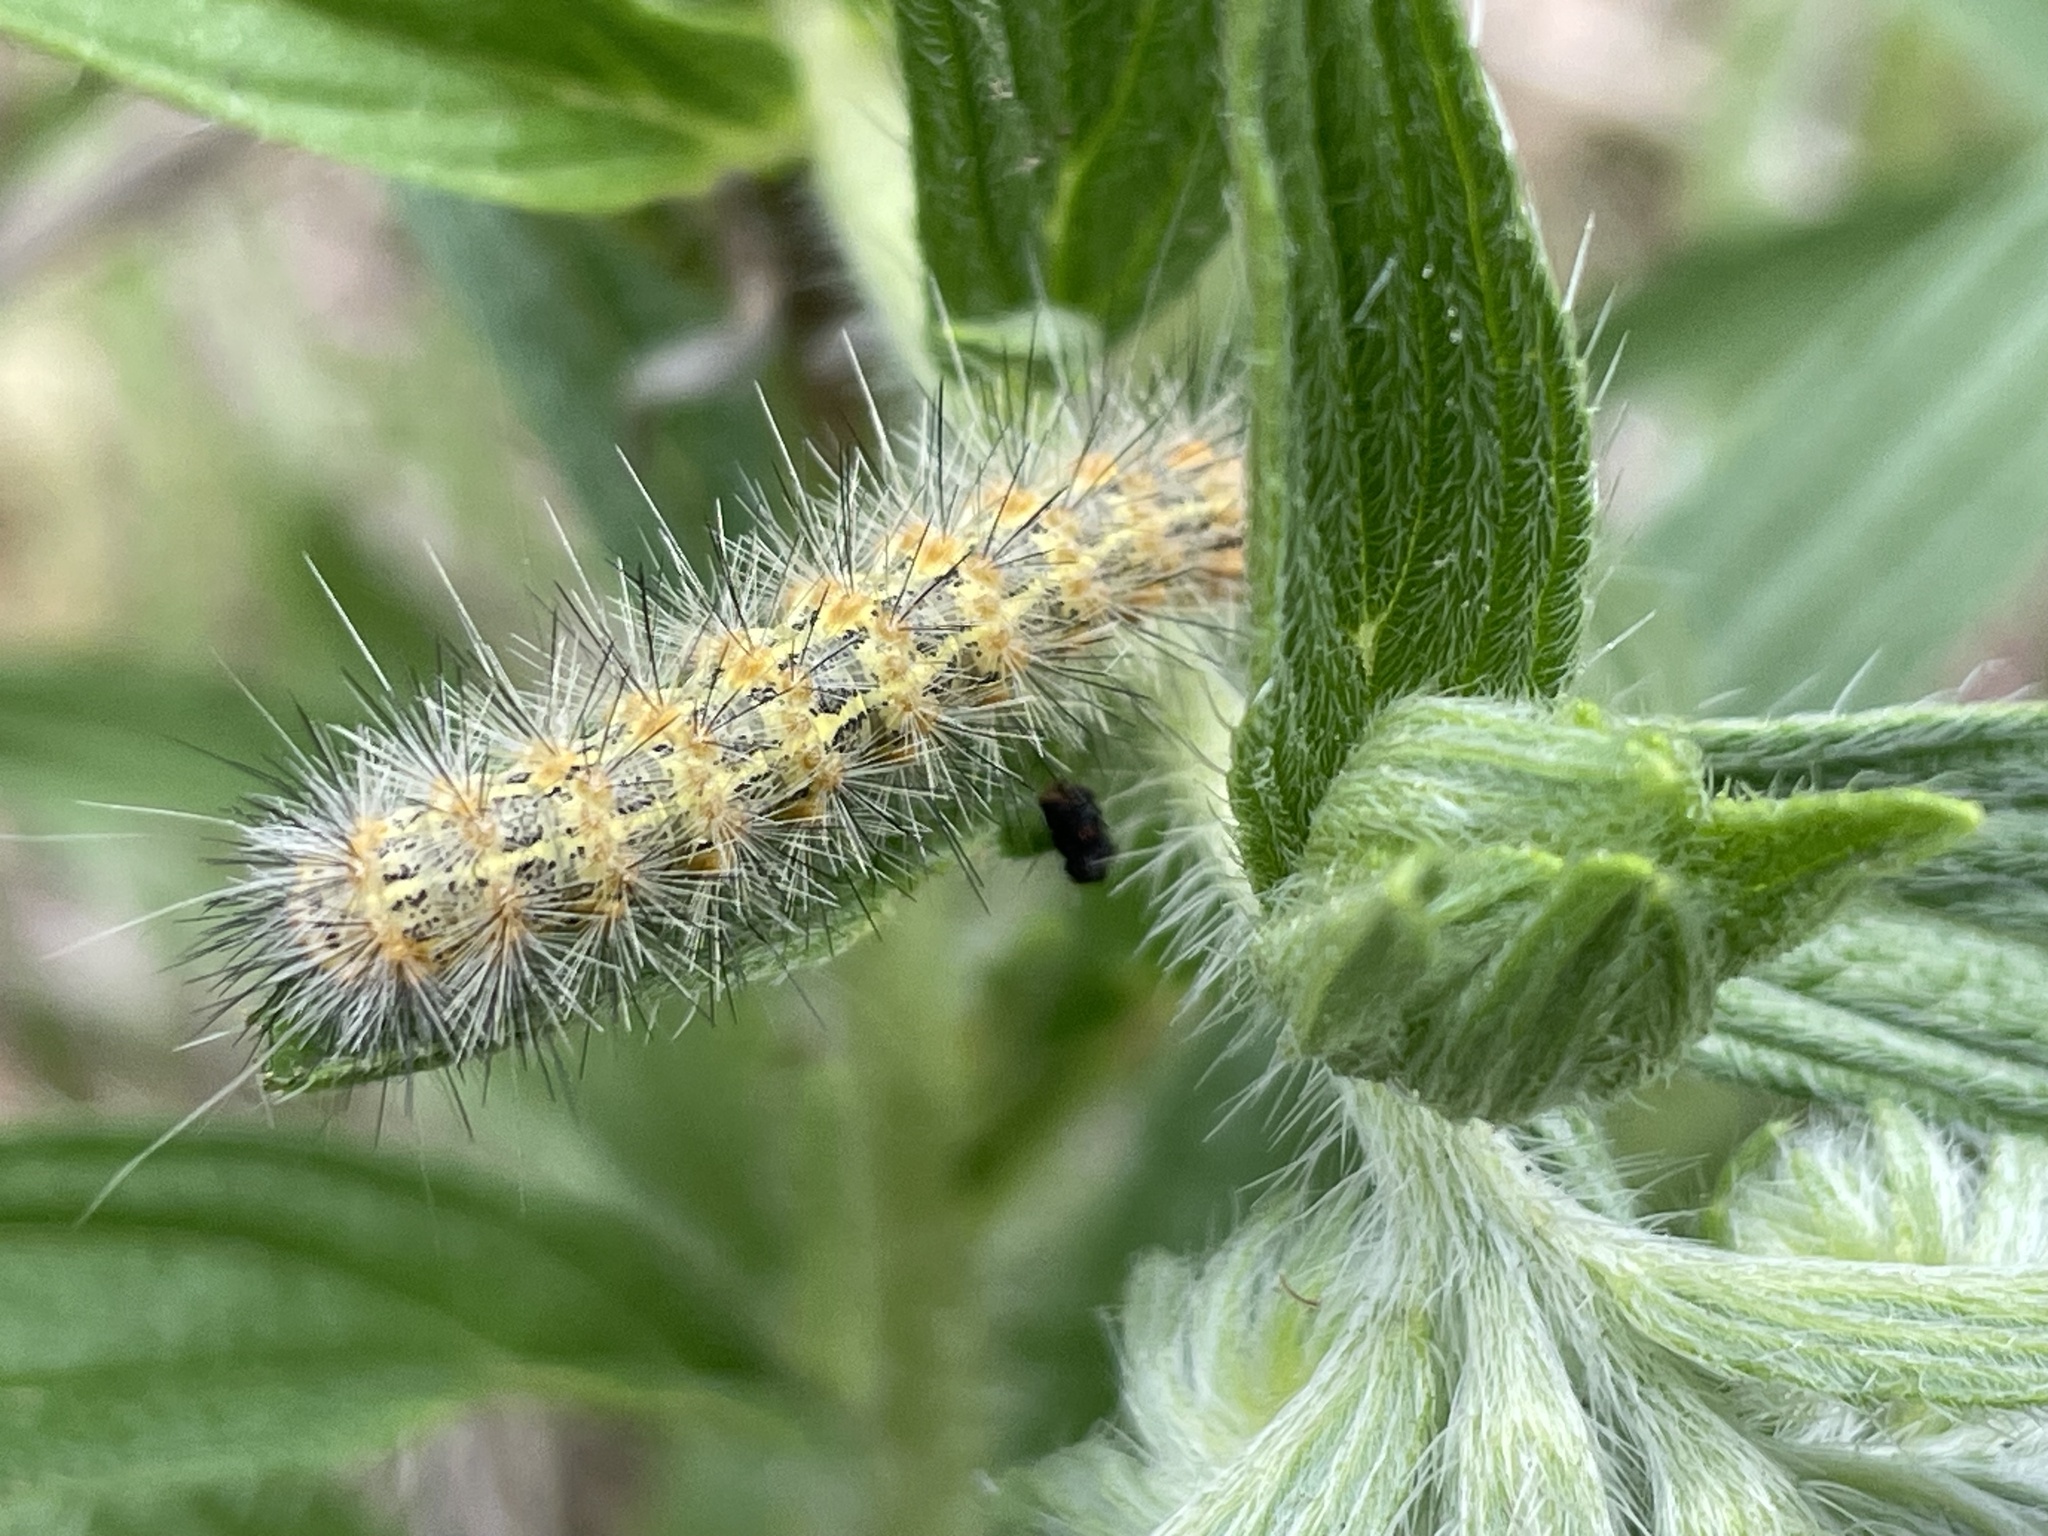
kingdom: Animalia
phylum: Arthropoda
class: Insecta
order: Lepidoptera
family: Erebidae
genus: Estigmene
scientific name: Estigmene acrea
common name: Salt marsh moth
